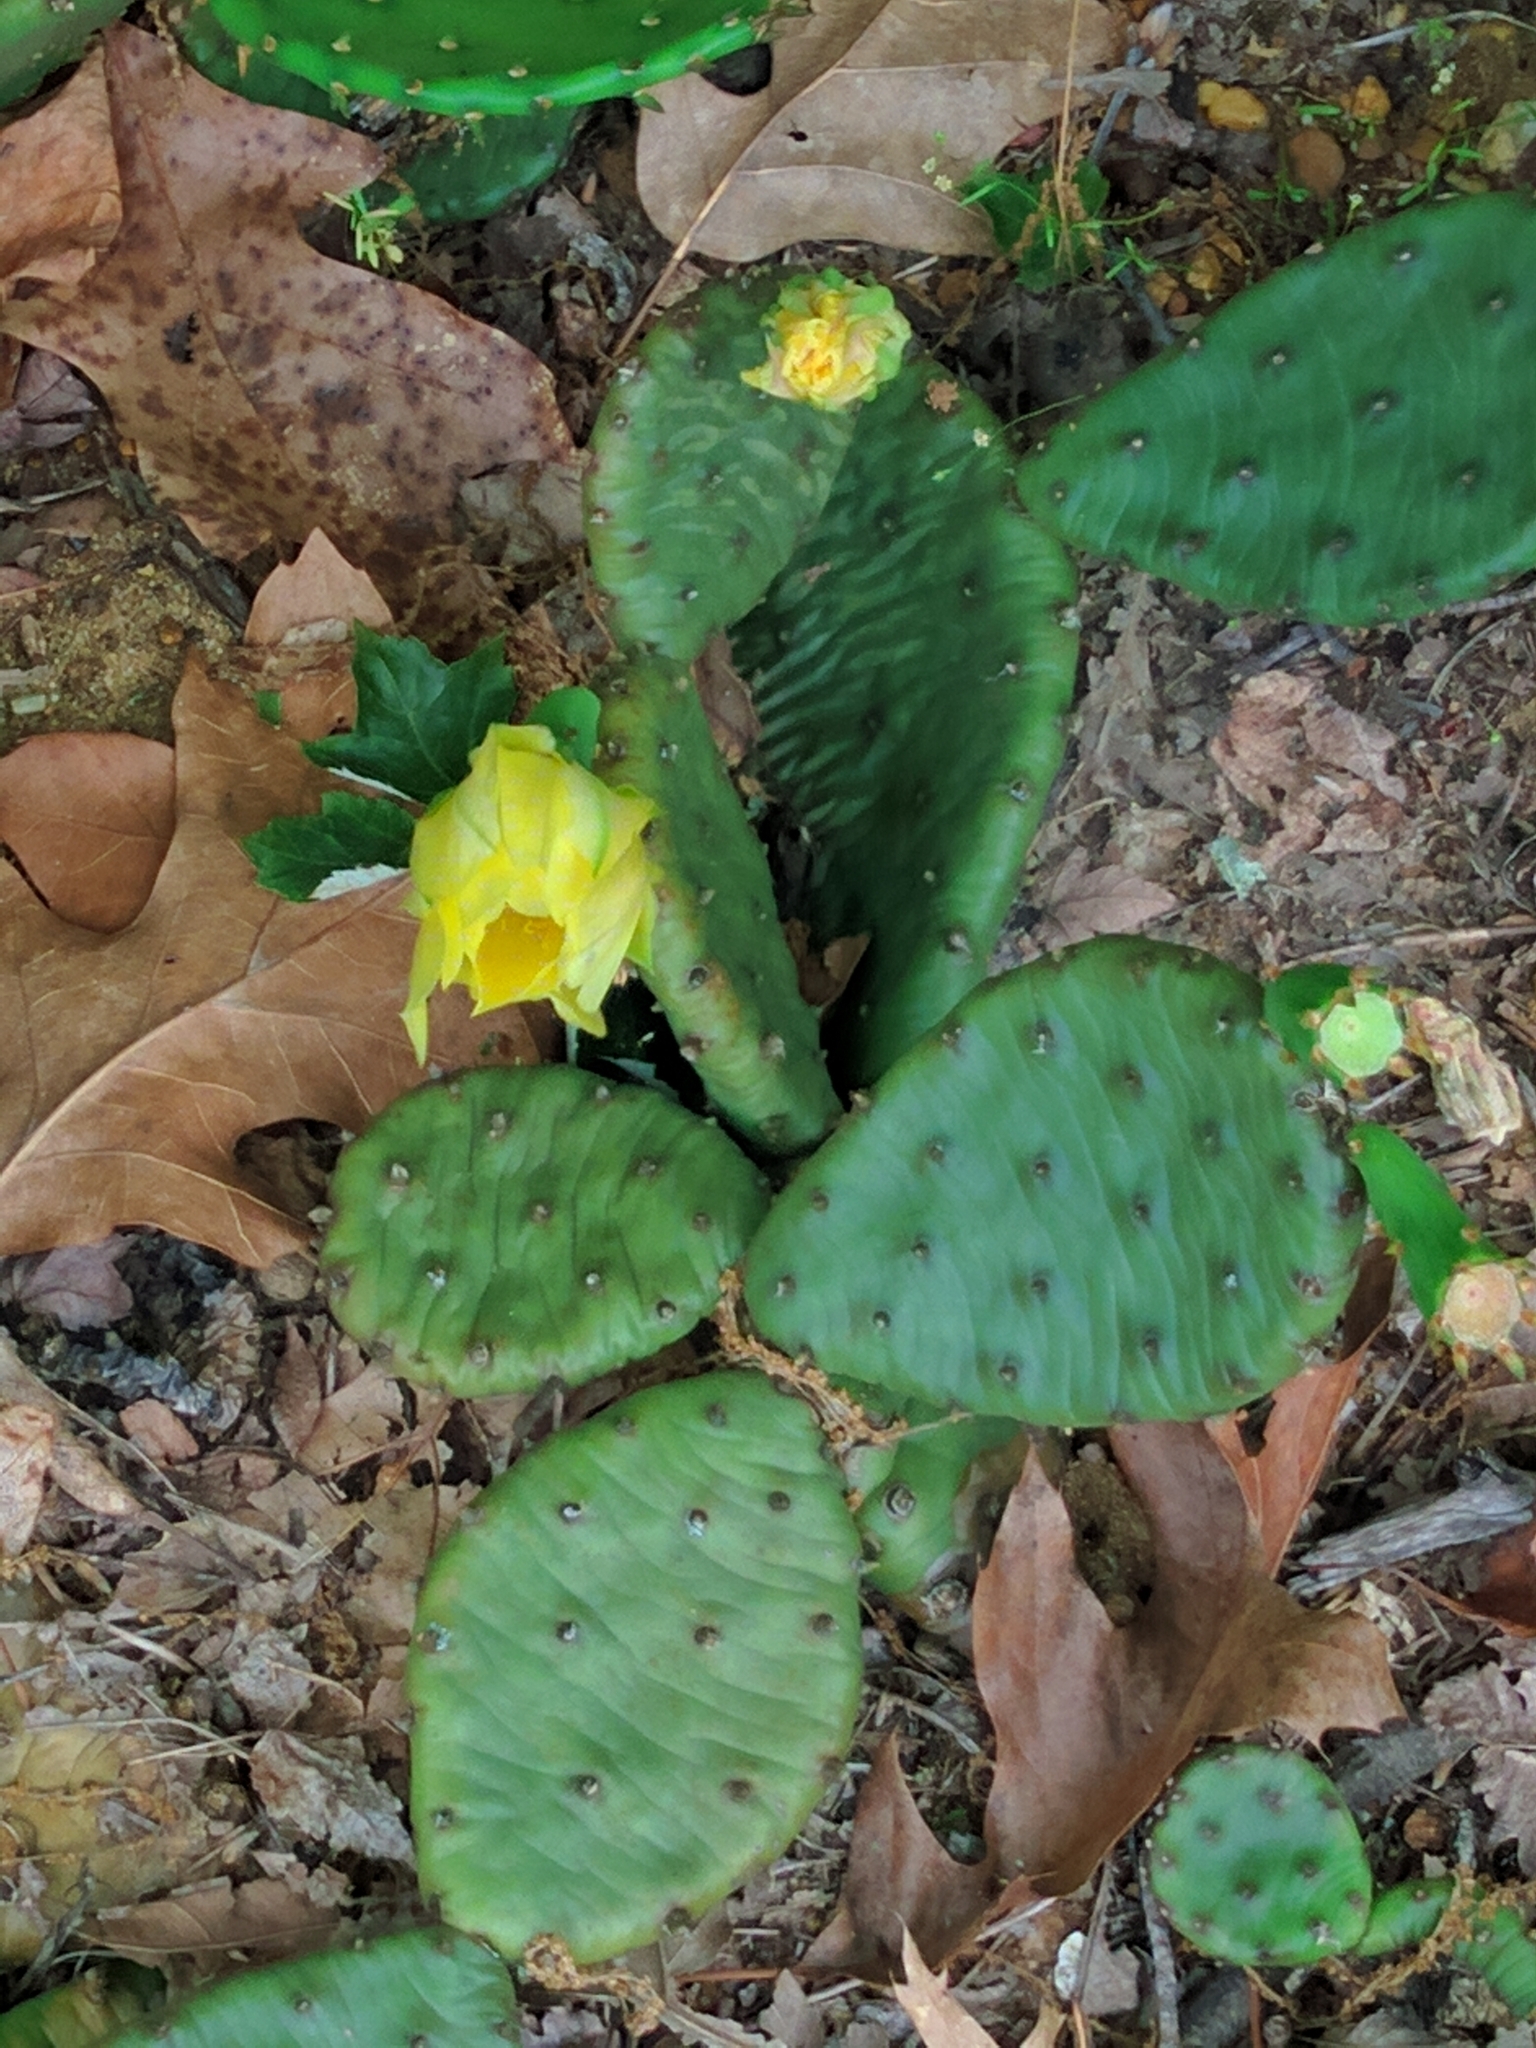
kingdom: Plantae
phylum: Tracheophyta
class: Magnoliopsida
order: Caryophyllales
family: Cactaceae
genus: Opuntia
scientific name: Opuntia humifusa
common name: Eastern prickly-pear
